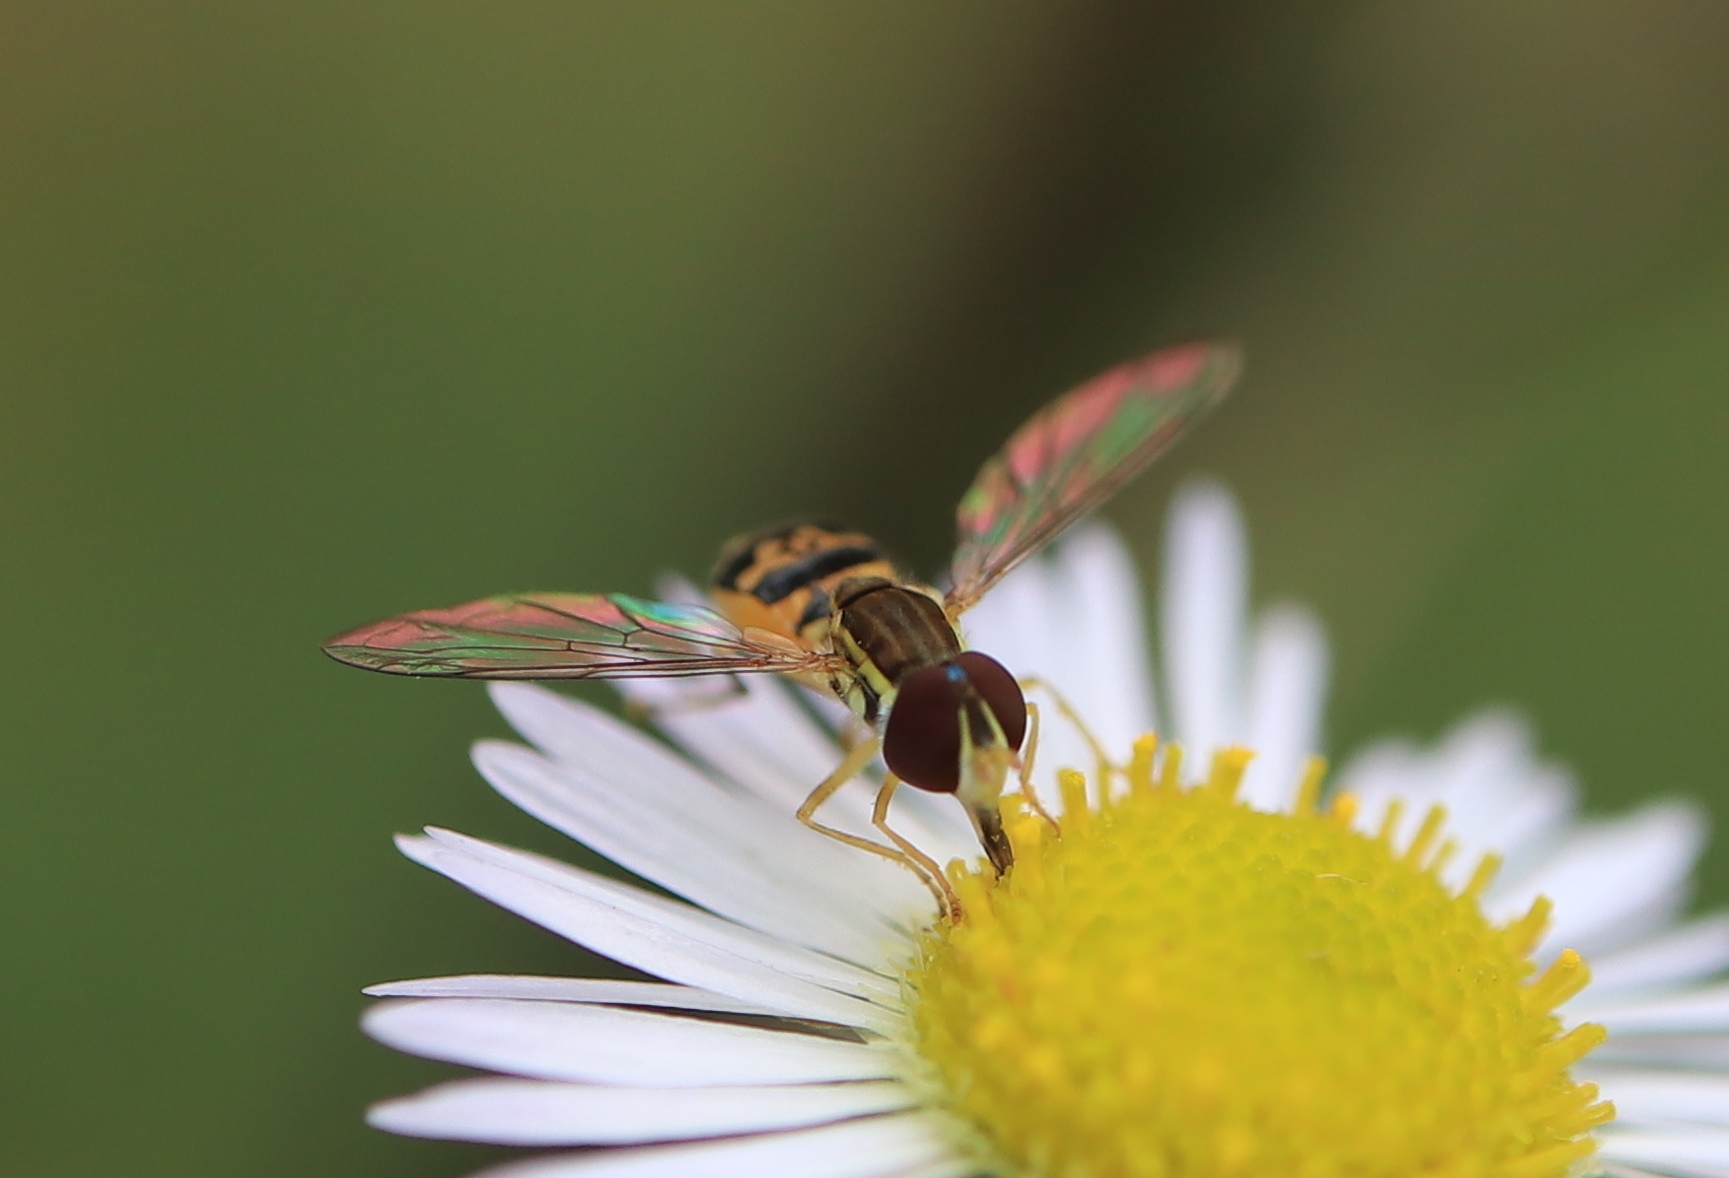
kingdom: Animalia
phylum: Arthropoda
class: Insecta
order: Diptera
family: Syrphidae
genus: Toxomerus
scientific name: Toxomerus geminatus
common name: Eastern calligrapher
